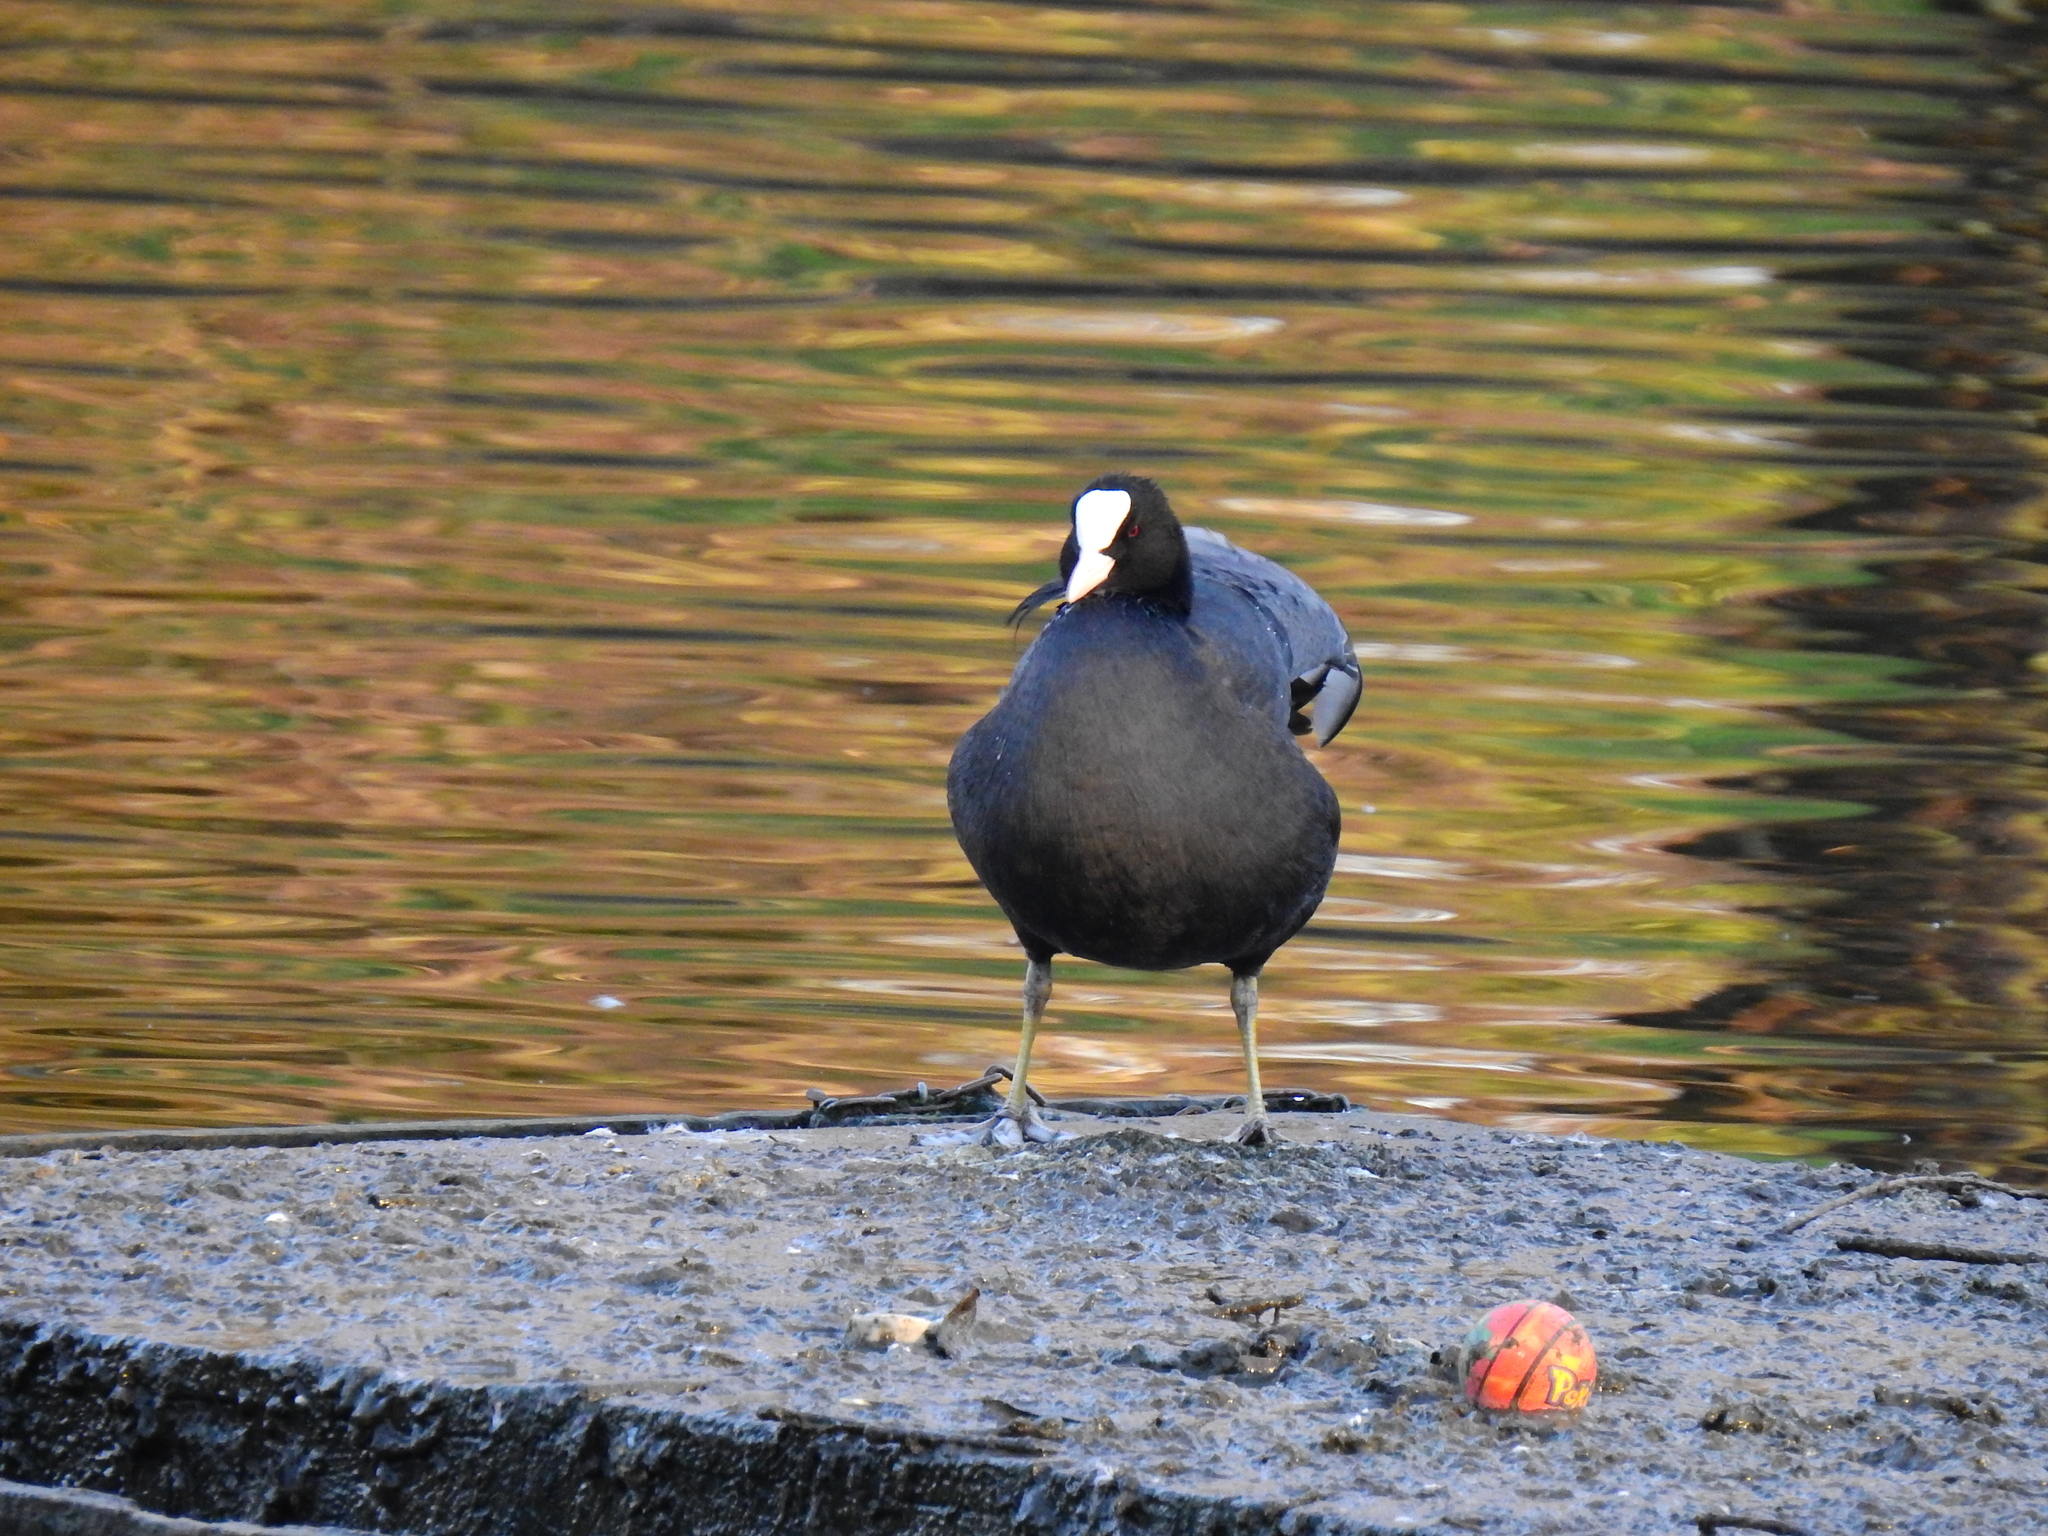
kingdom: Animalia
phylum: Chordata
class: Aves
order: Gruiformes
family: Rallidae
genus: Fulica
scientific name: Fulica atra
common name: Eurasian coot
